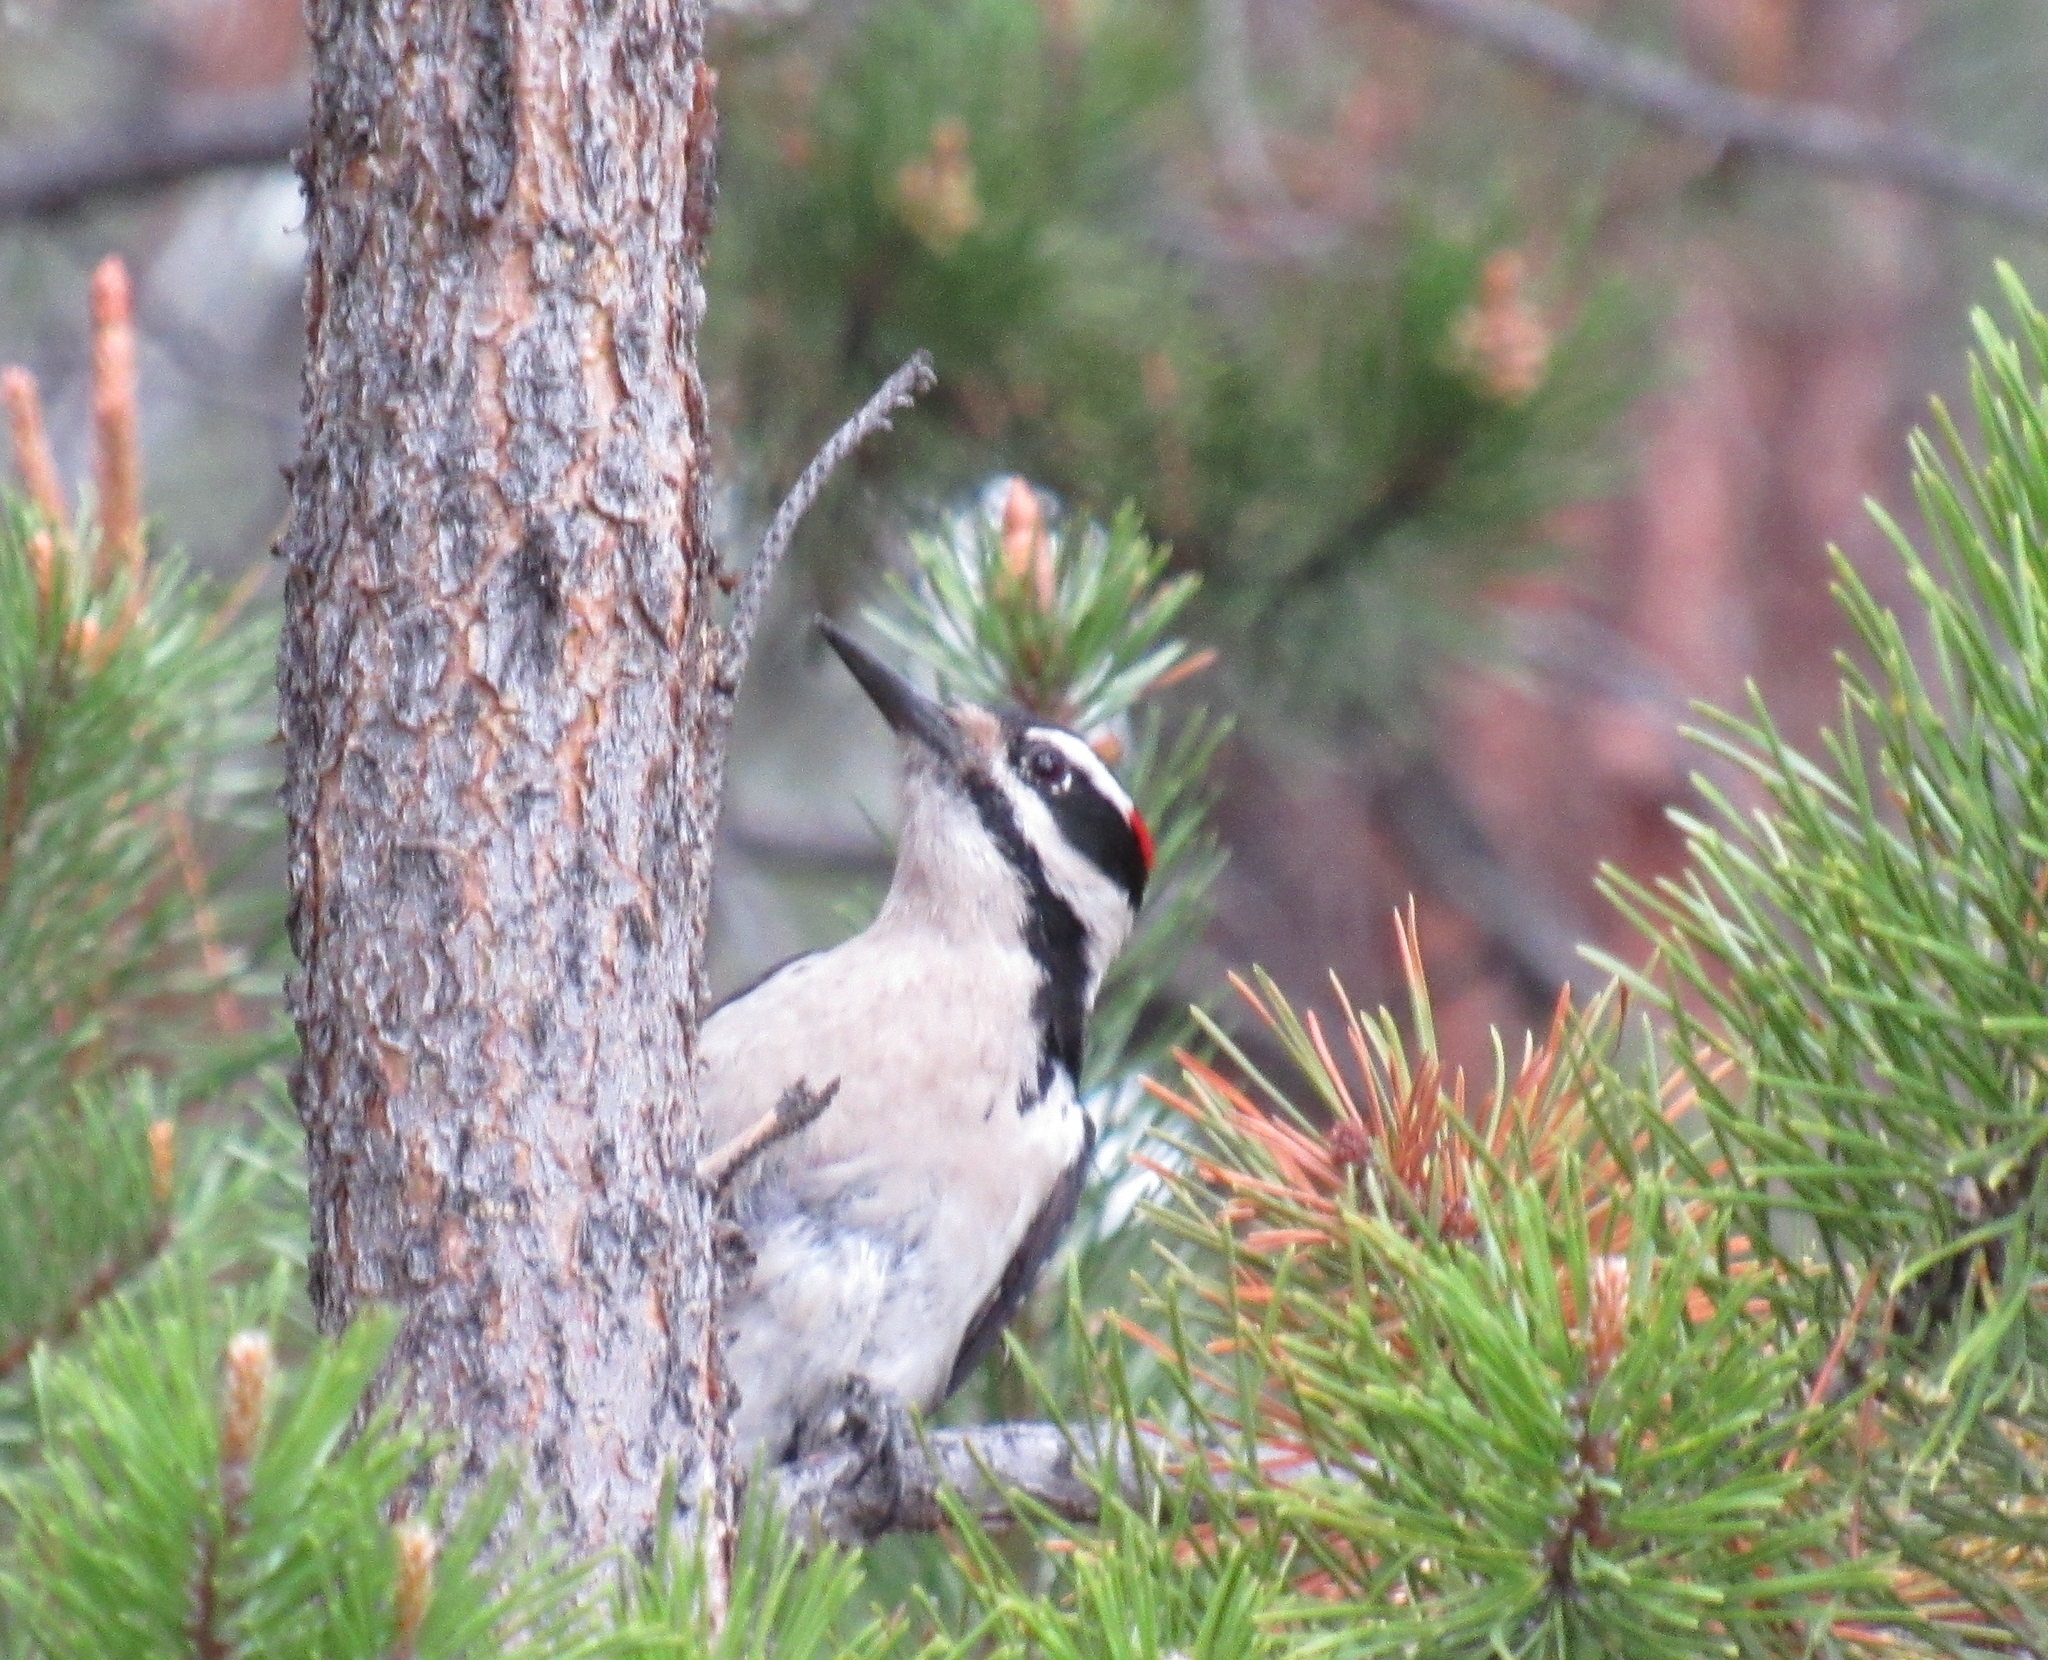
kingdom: Animalia
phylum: Chordata
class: Aves
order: Piciformes
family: Picidae
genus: Leuconotopicus
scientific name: Leuconotopicus villosus
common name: Hairy woodpecker
